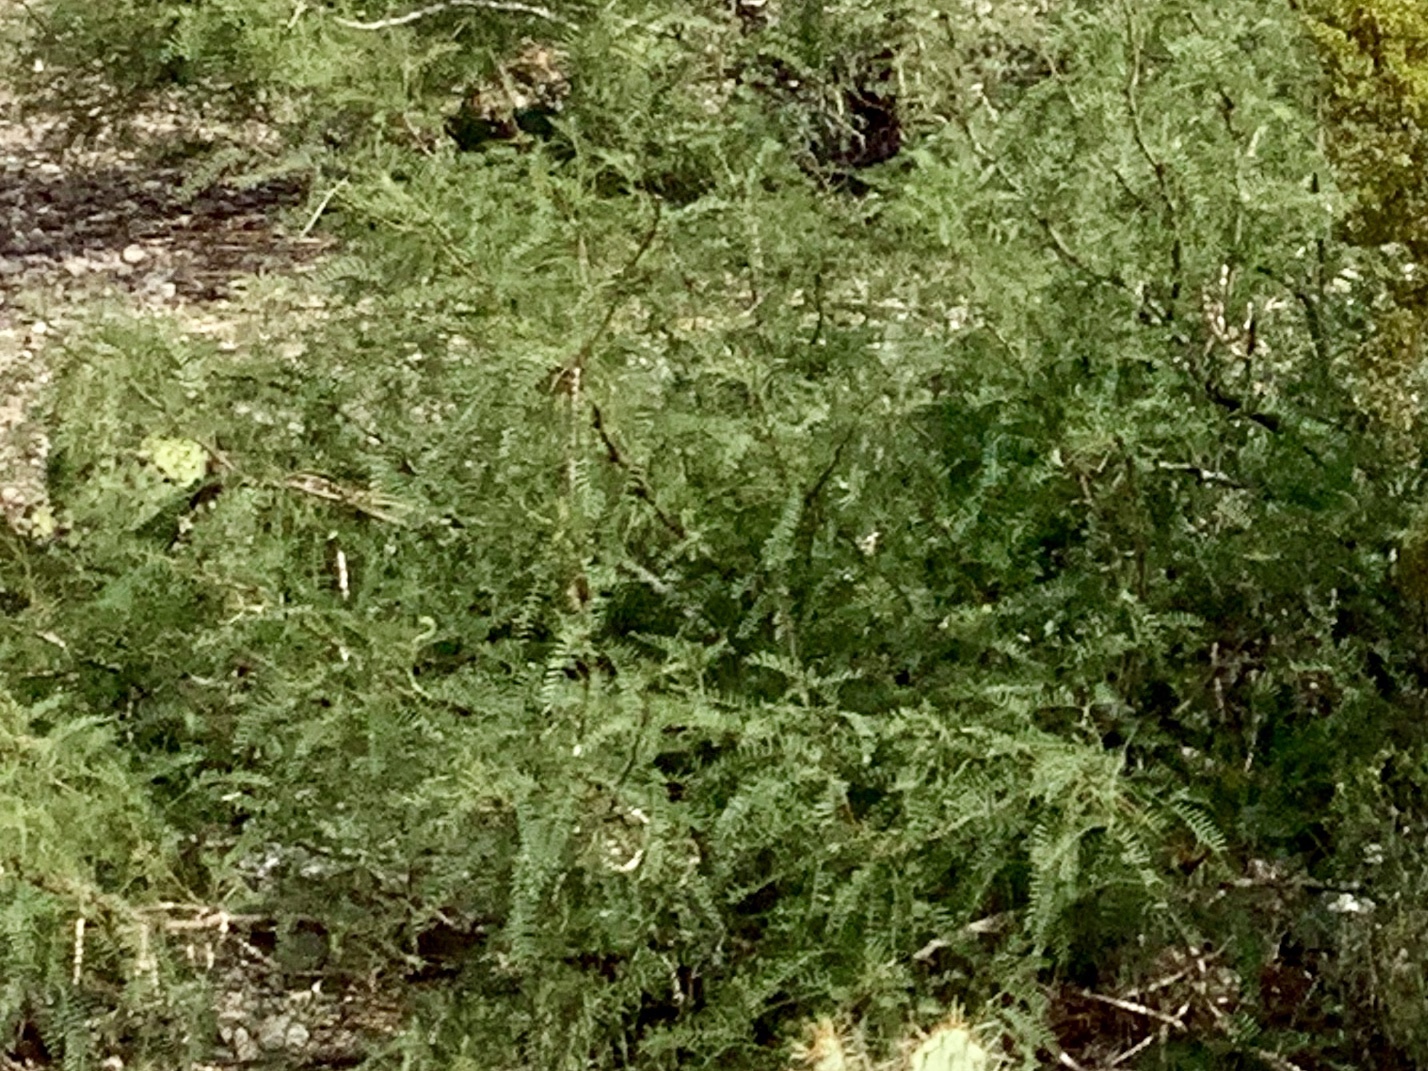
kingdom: Plantae
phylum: Tracheophyta
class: Magnoliopsida
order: Fabales
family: Fabaceae
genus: Prosopis
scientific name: Prosopis glandulosa
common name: Honey mesquite
